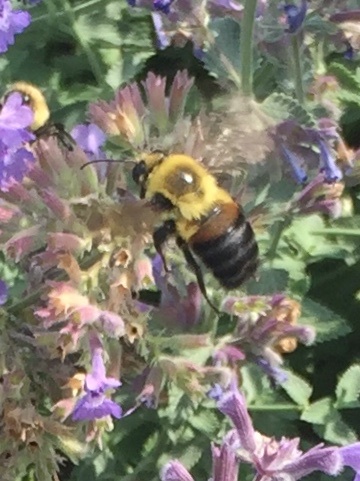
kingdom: Animalia
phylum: Arthropoda
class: Insecta
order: Hymenoptera
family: Apidae
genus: Bombus
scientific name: Bombus griseocollis
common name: Brown-belted bumble bee
